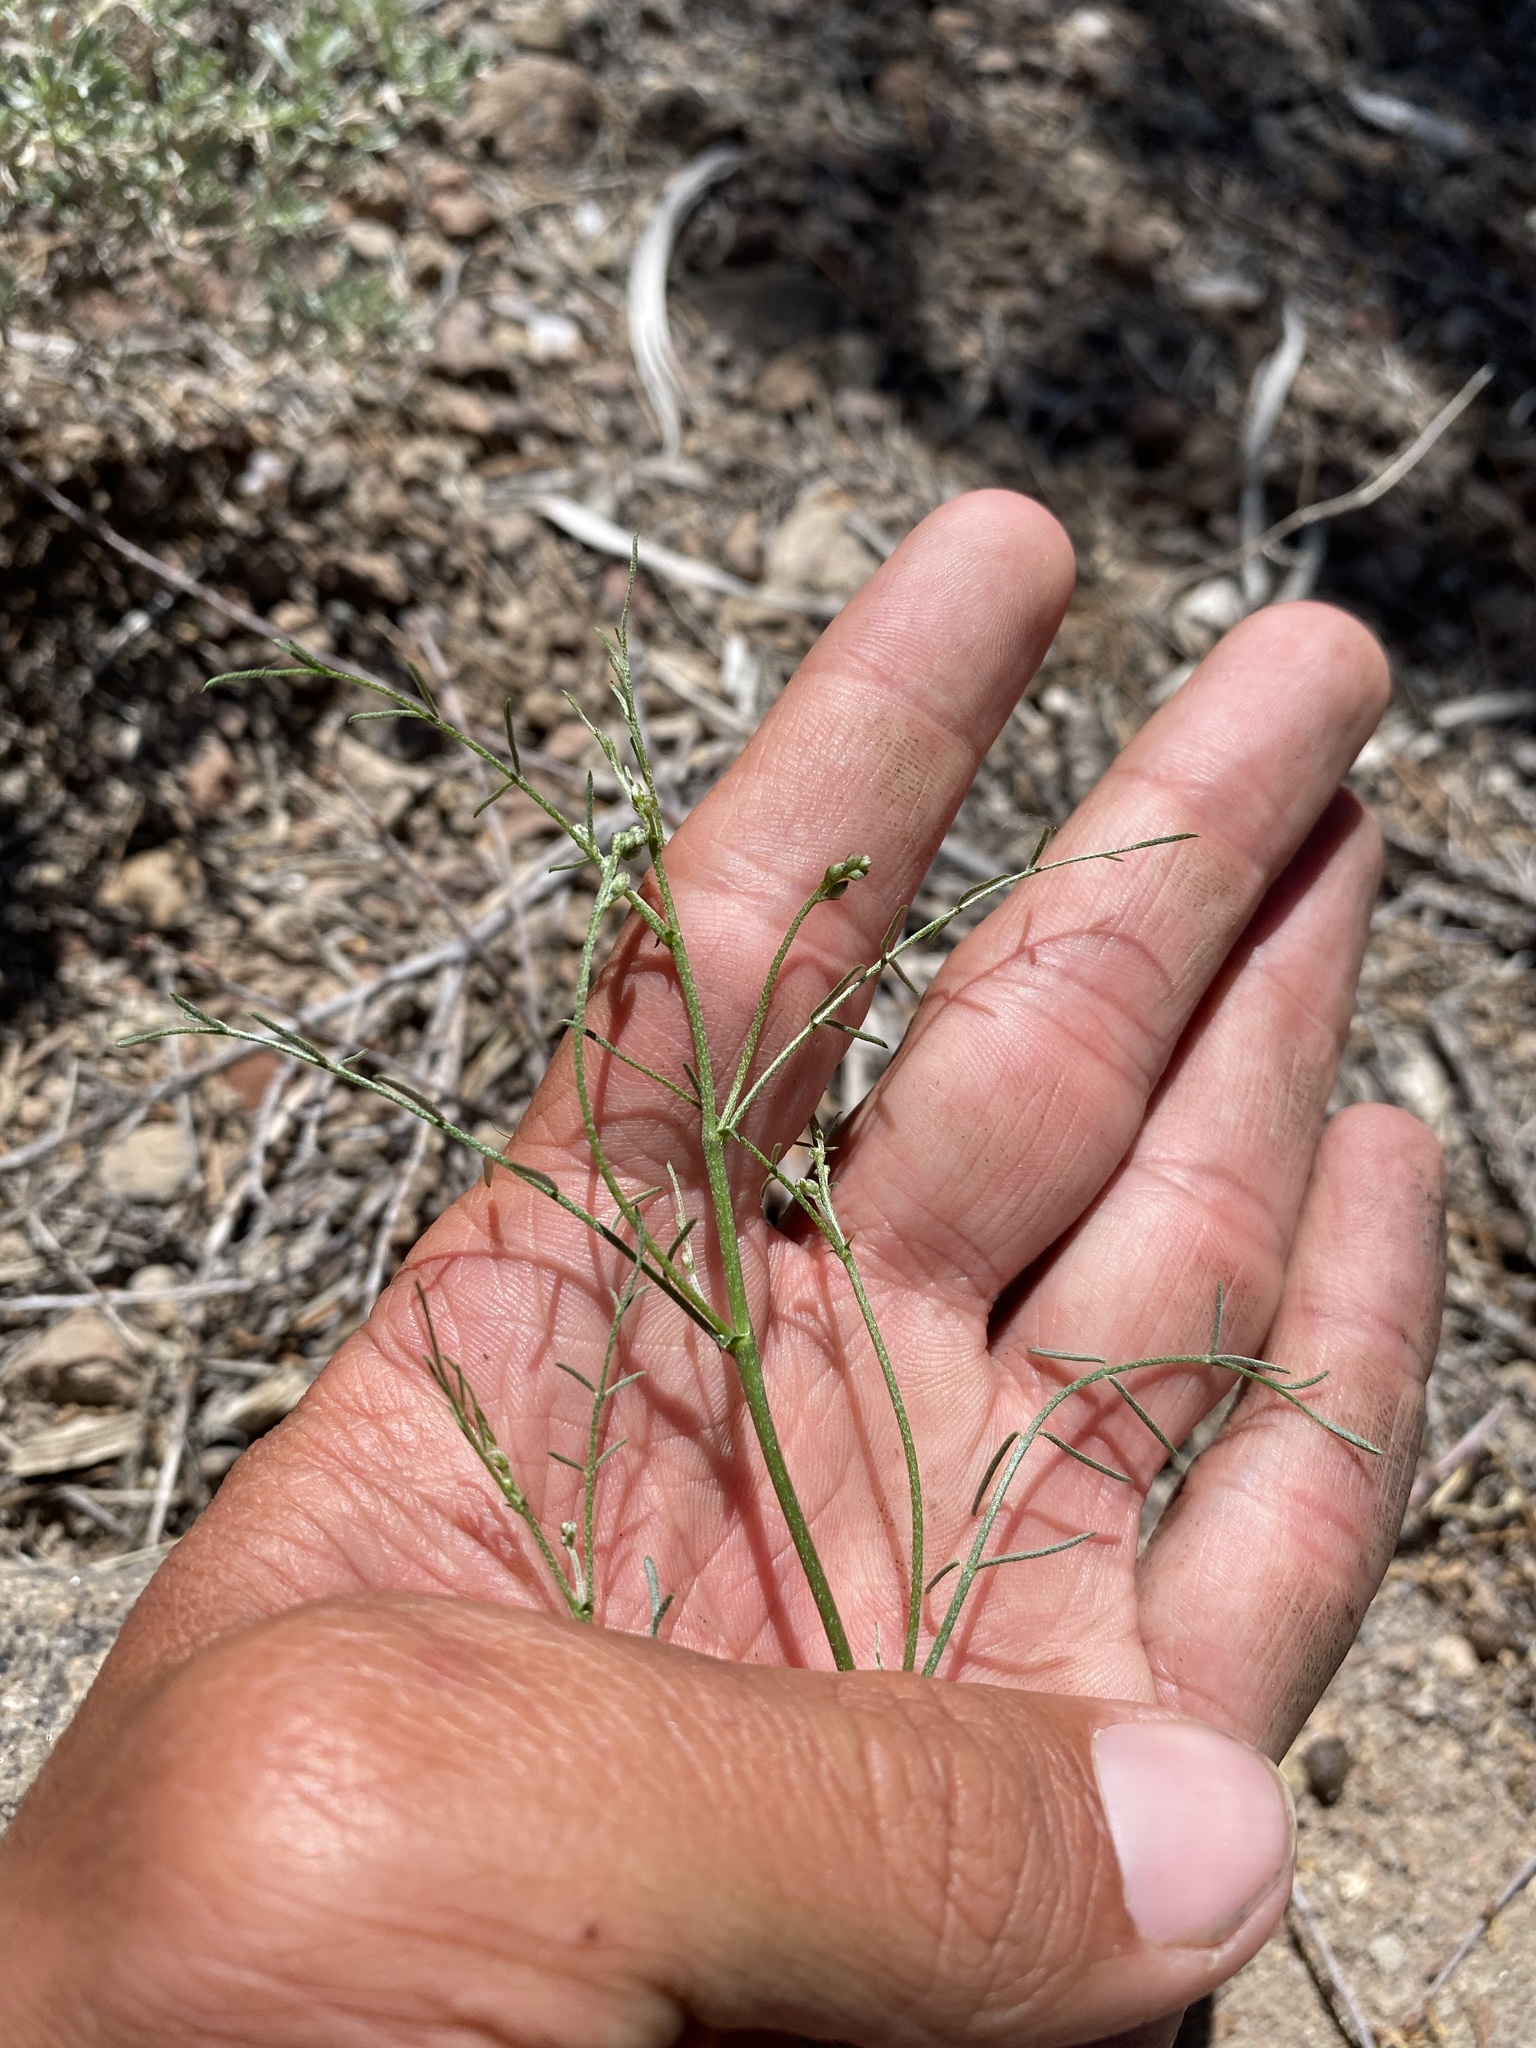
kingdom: Plantae
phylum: Tracheophyta
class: Magnoliopsida
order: Fabales
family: Fabaceae
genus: Astragalus
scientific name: Astragalus convallarius
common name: Lesser rushy milk-vetch
